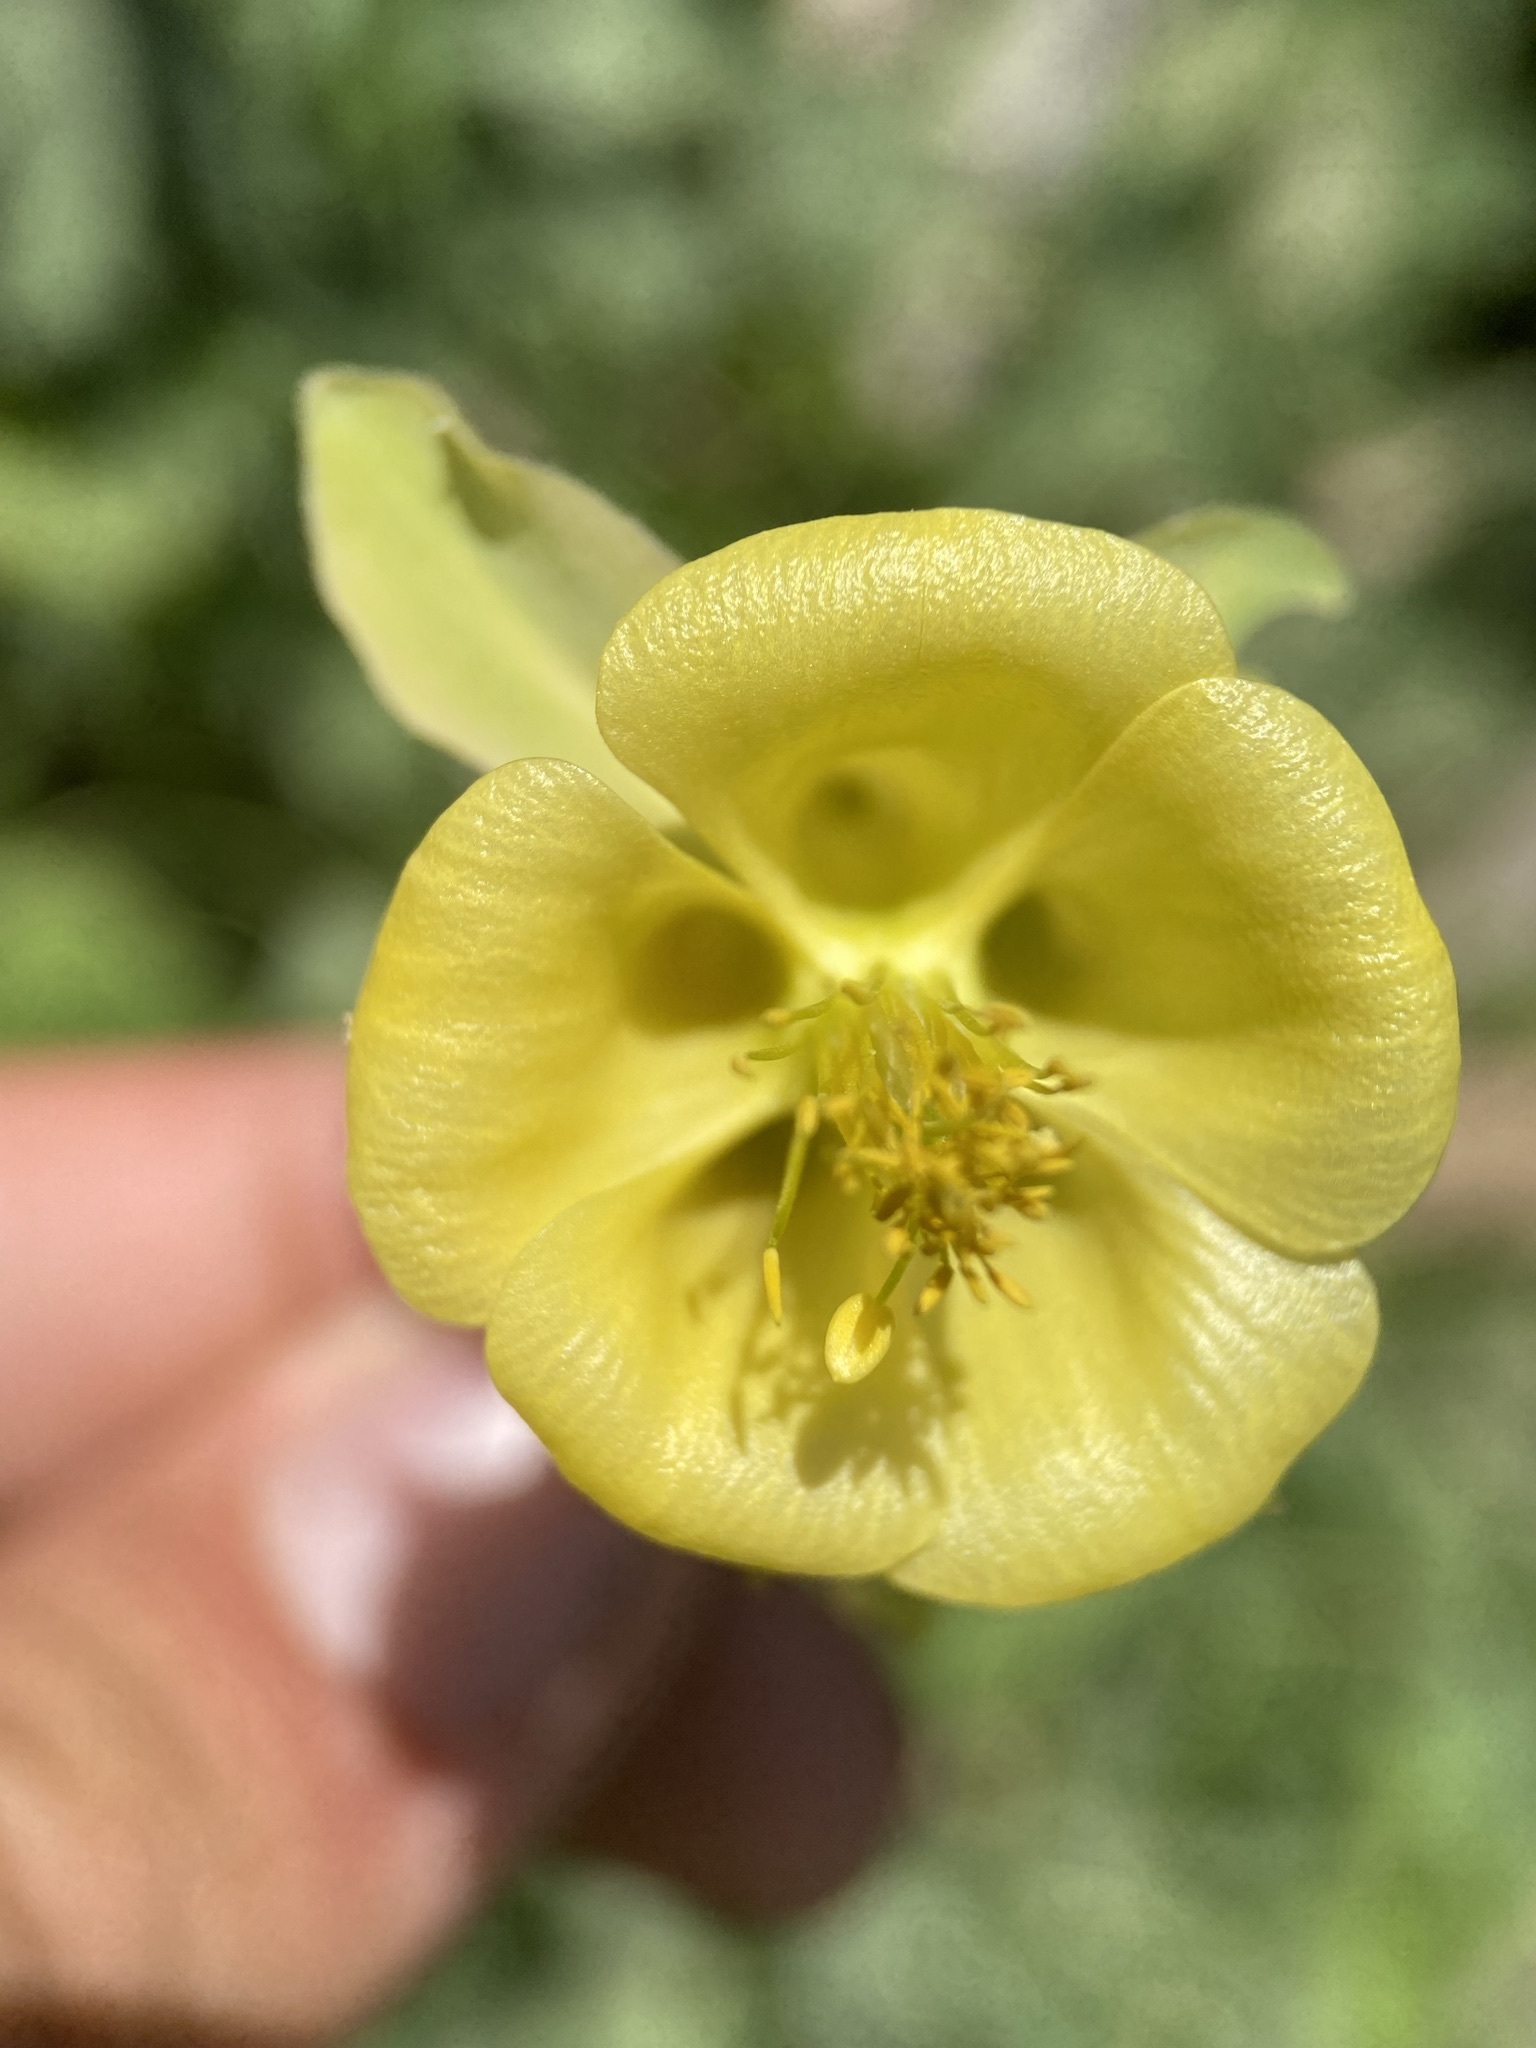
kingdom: Plantae
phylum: Tracheophyta
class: Magnoliopsida
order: Ranunculales
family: Ranunculaceae
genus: Aquilegia
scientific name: Aquilegia flavescens
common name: Yellow columbine
